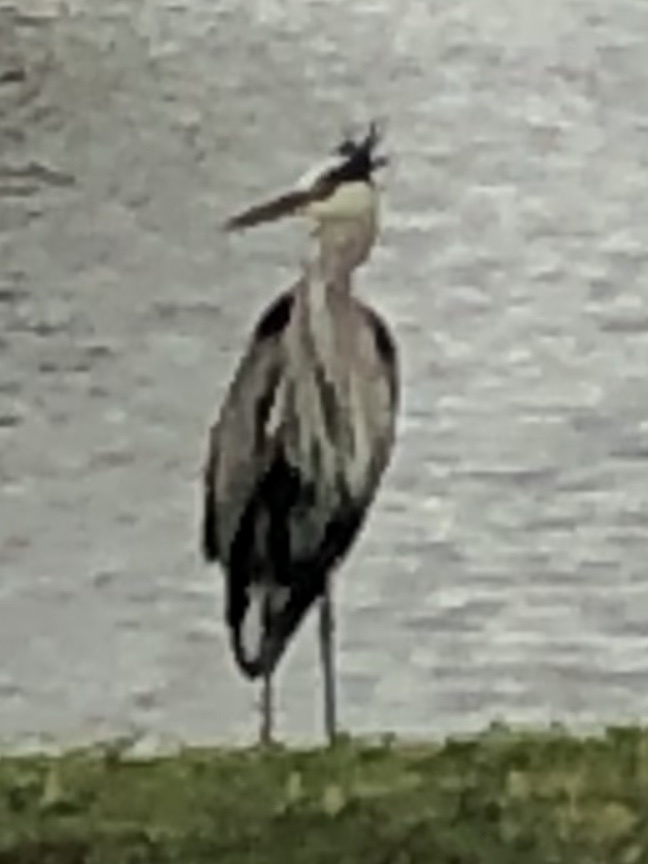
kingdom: Animalia
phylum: Chordata
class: Aves
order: Pelecaniformes
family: Ardeidae
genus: Ardea
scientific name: Ardea herodias
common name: Great blue heron
